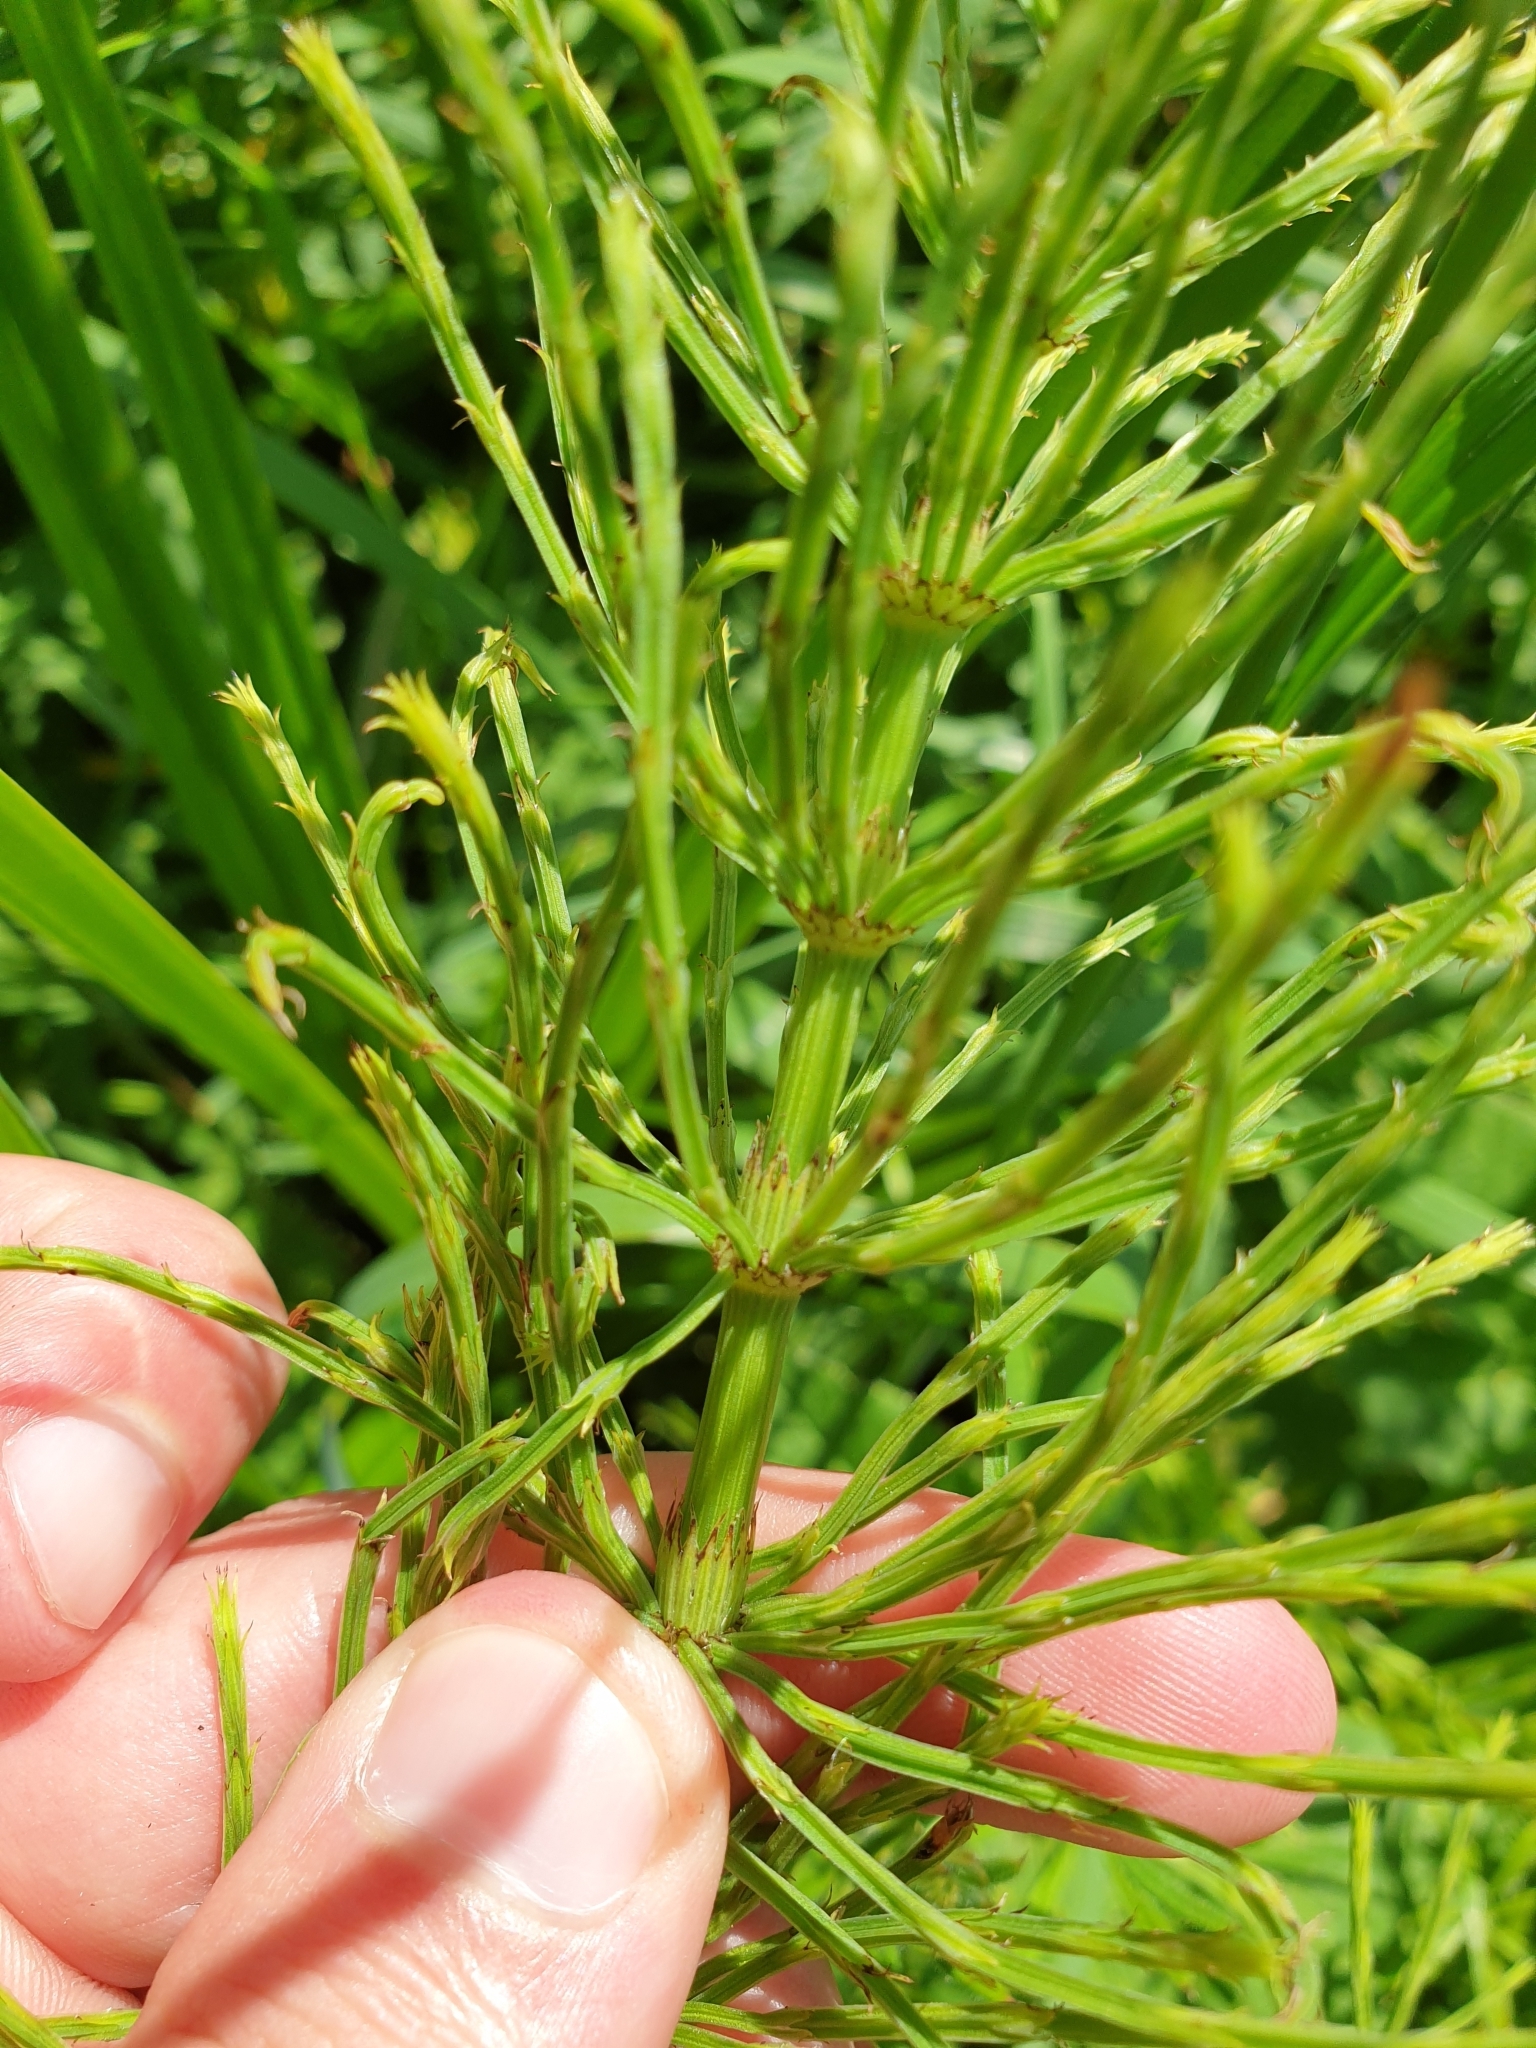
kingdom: Plantae
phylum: Tracheophyta
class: Polypodiopsida
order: Equisetales
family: Equisetaceae
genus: Equisetum
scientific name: Equisetum arvense
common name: Field horsetail
